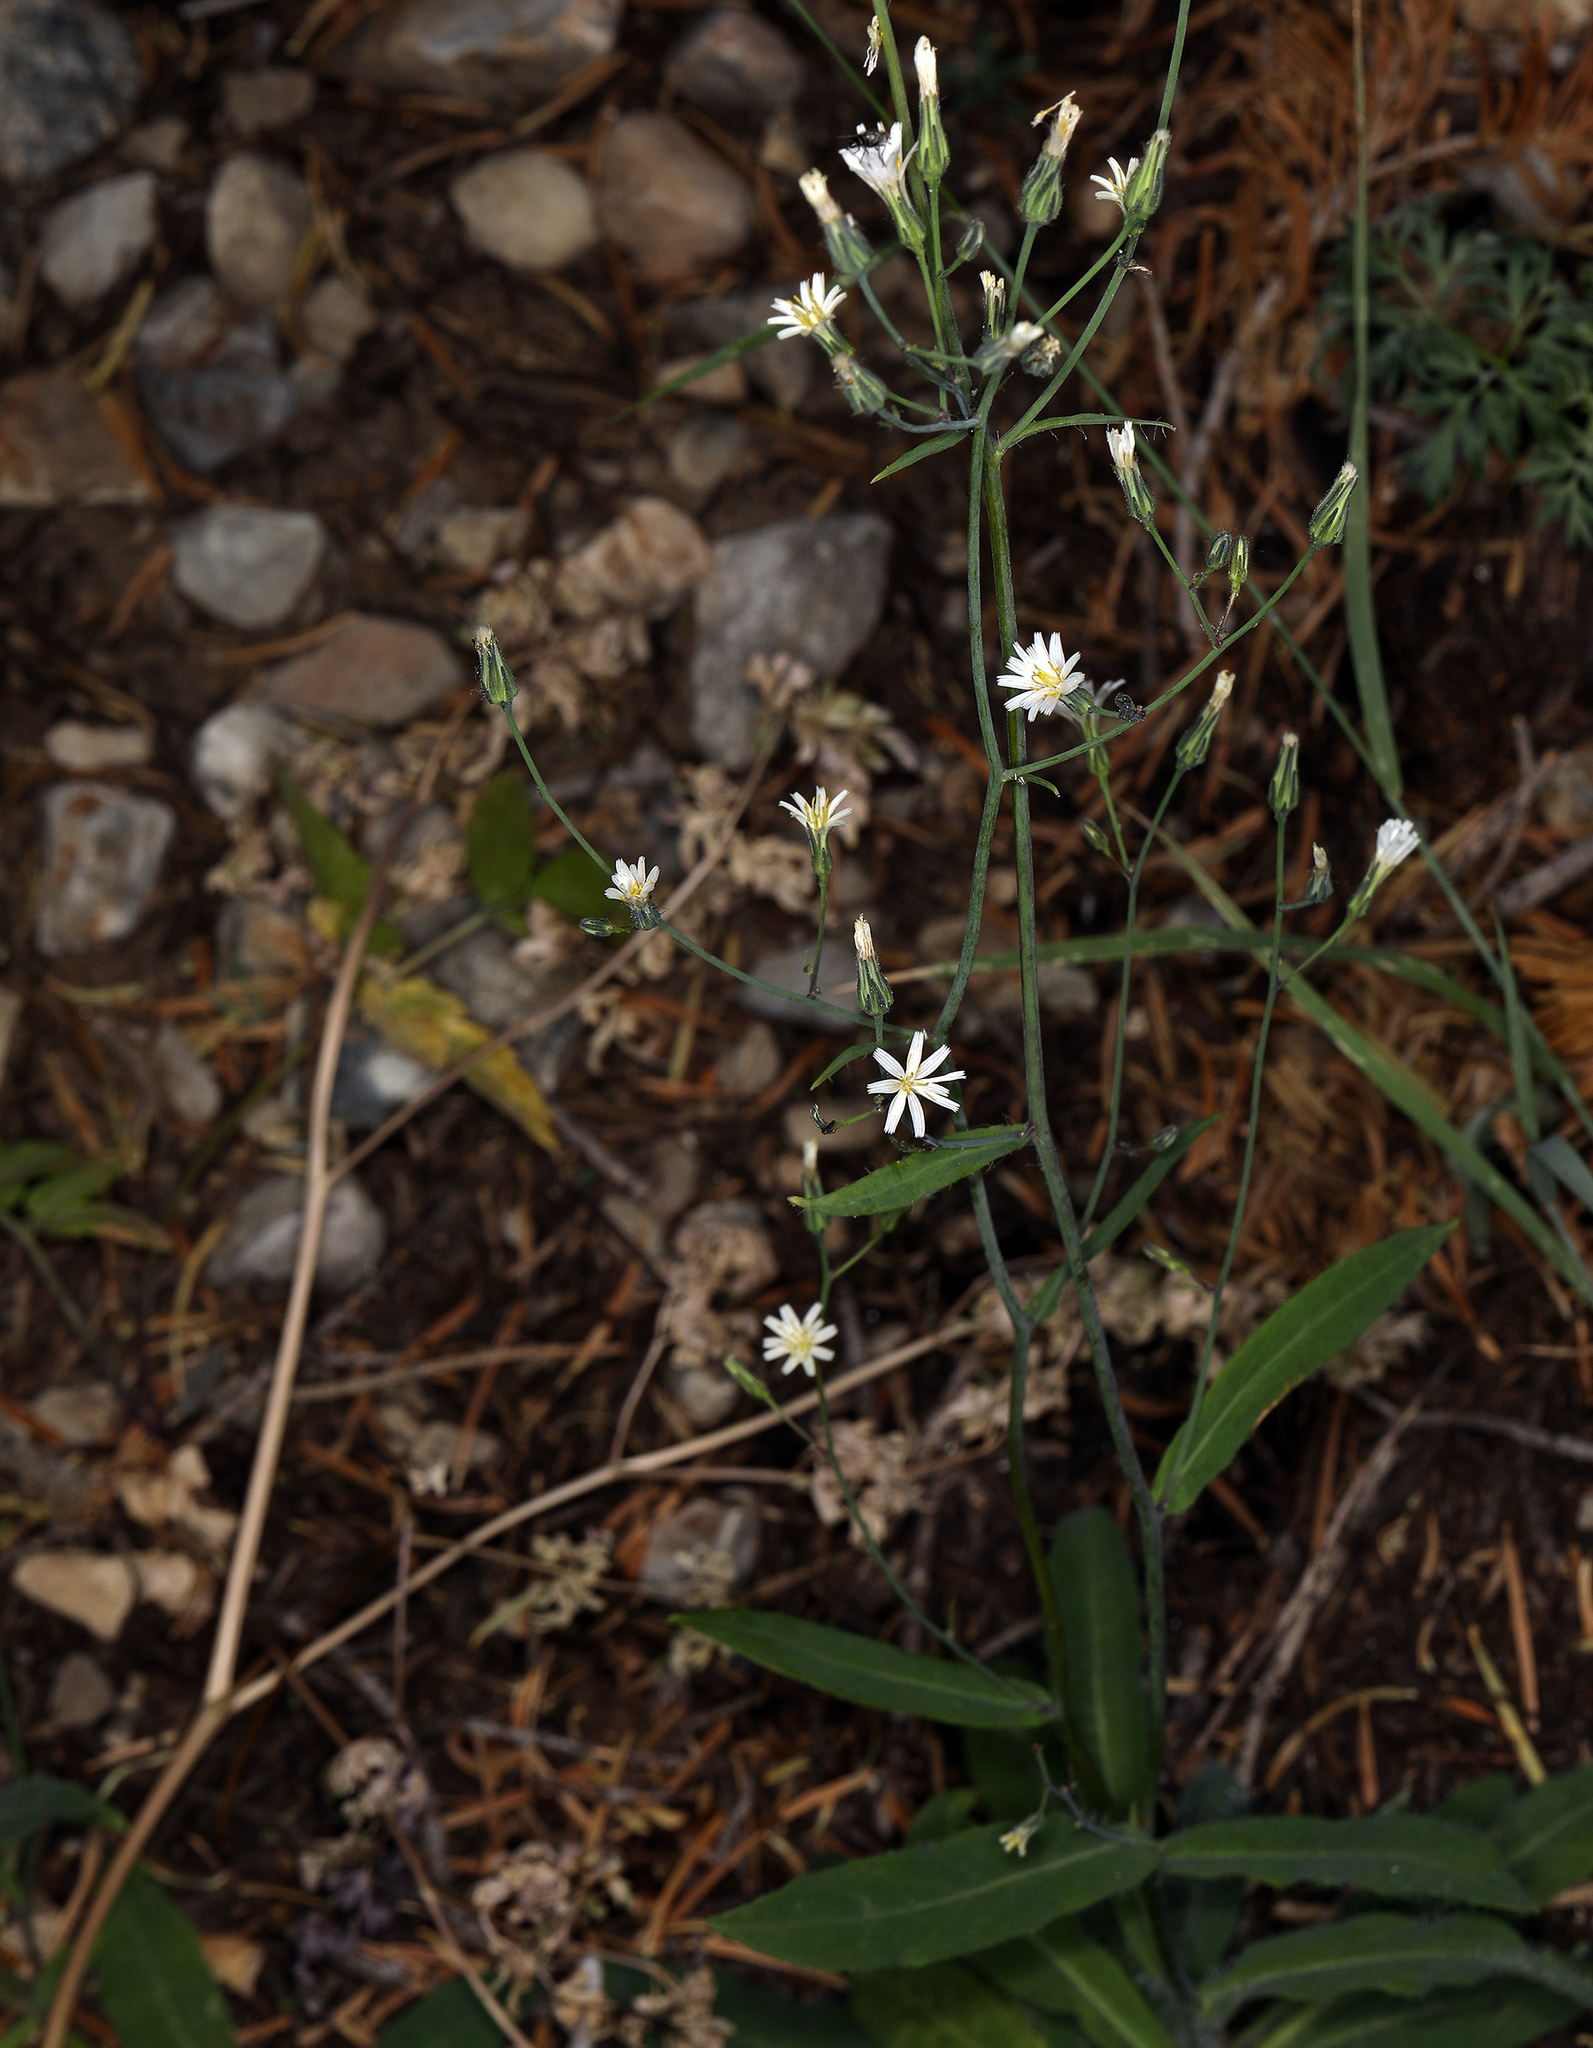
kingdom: Plantae
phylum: Tracheophyta
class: Magnoliopsida
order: Asterales
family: Asteraceae
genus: Hieracium
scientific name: Hieracium albiflorum
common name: White hawkweed
